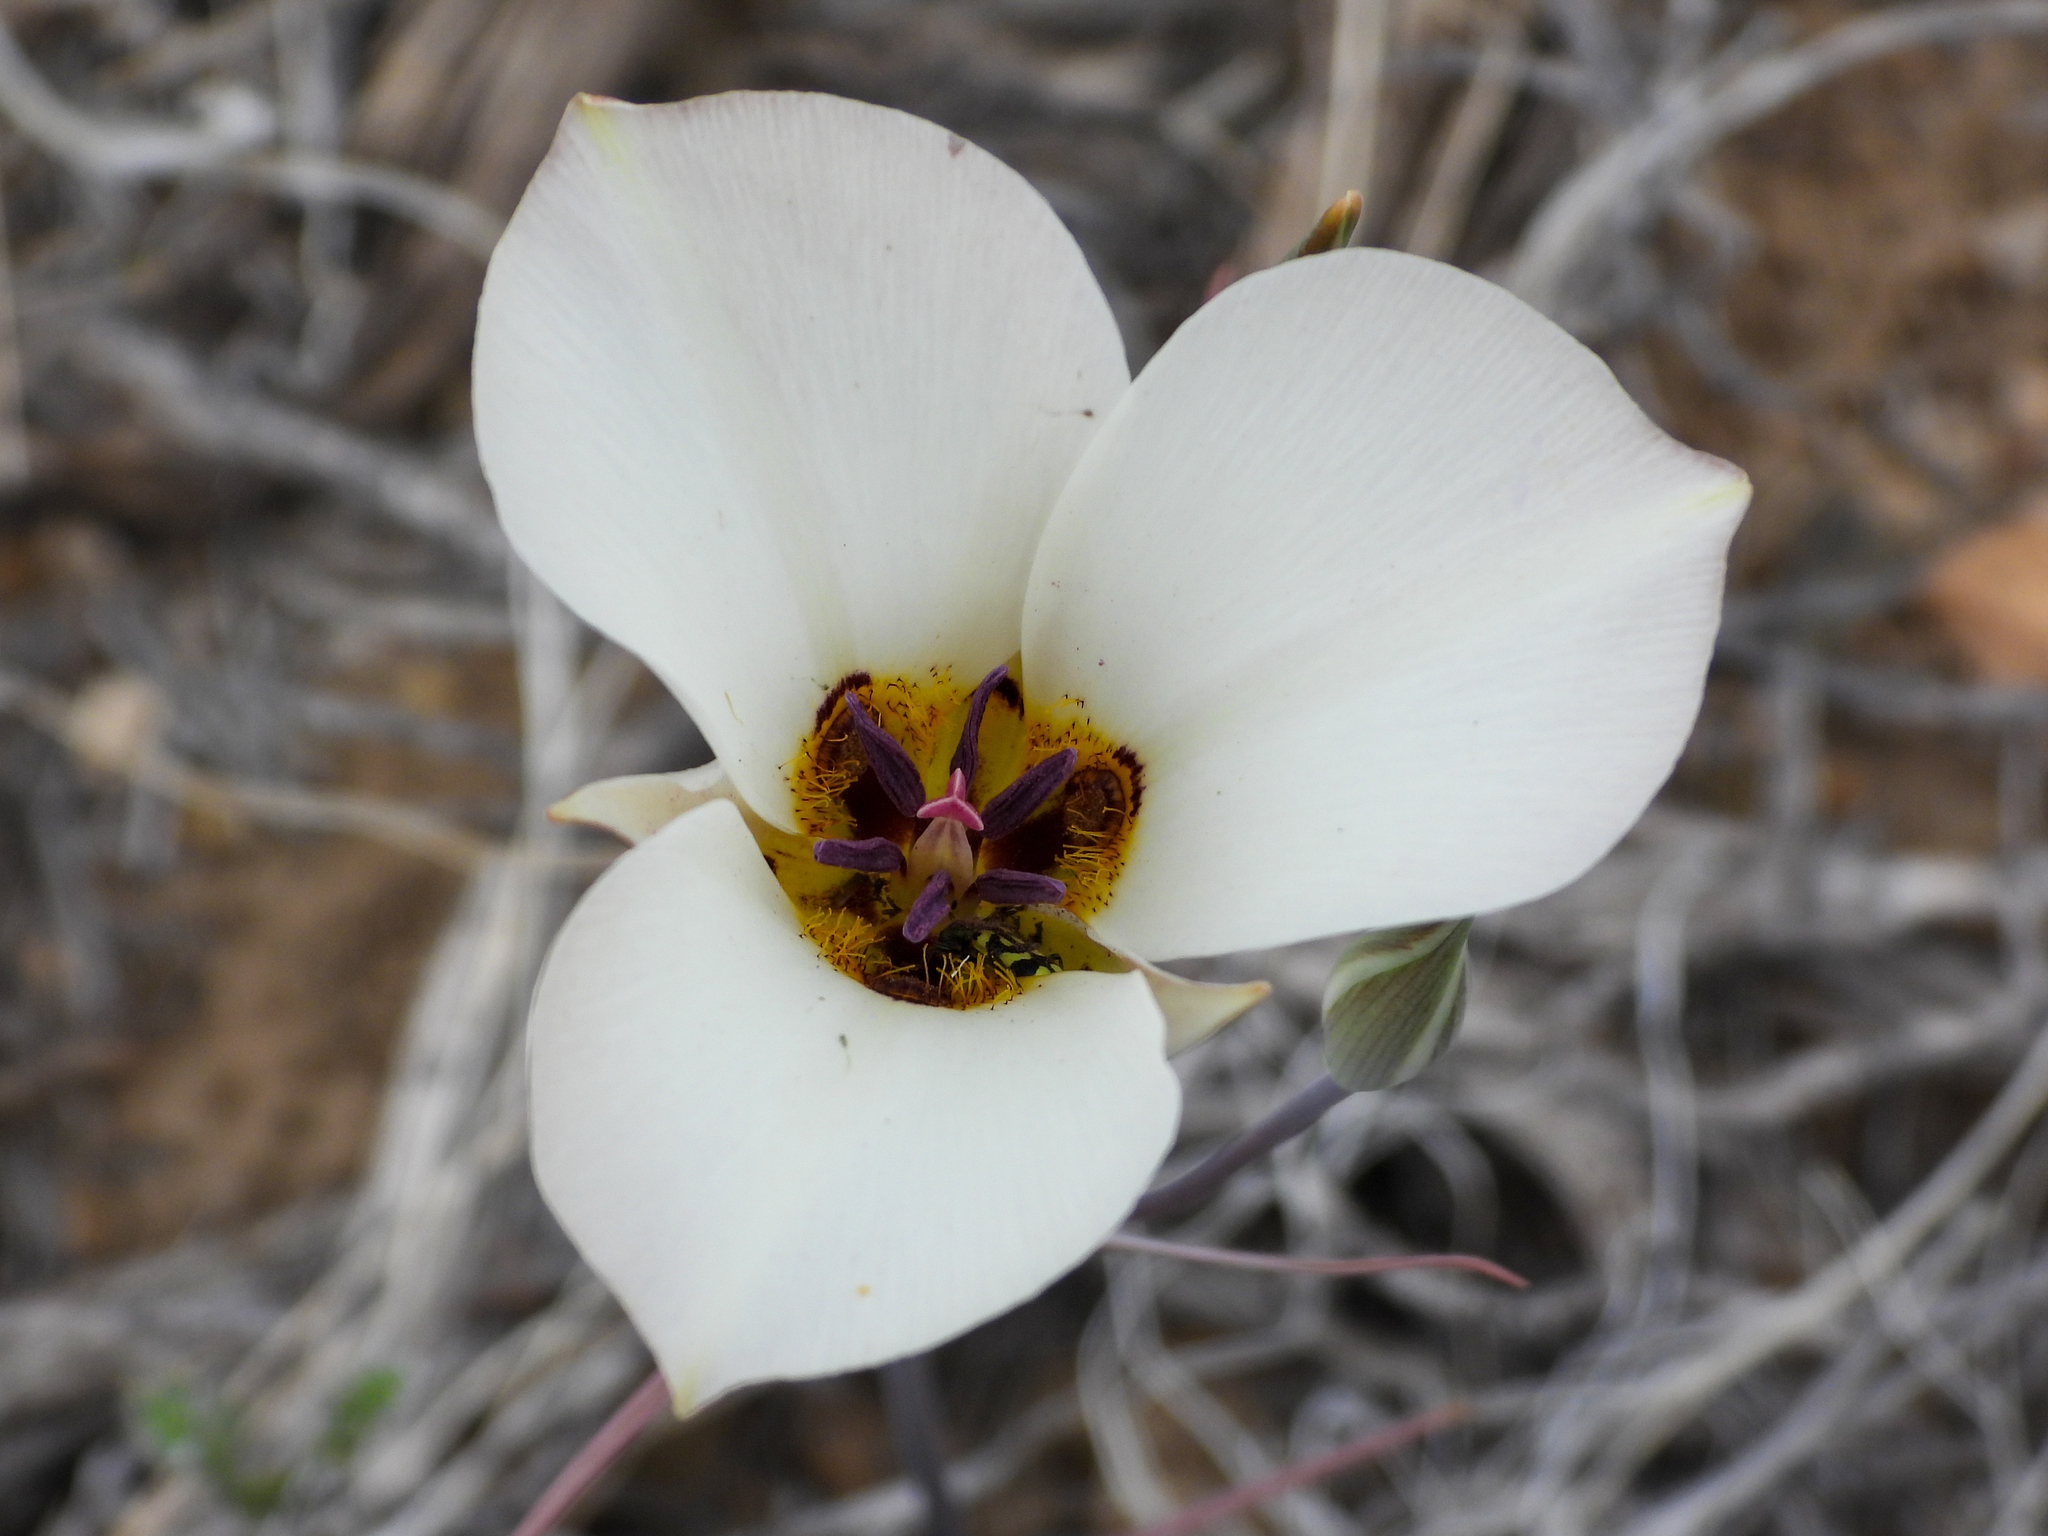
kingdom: Plantae
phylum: Tracheophyta
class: Liliopsida
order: Liliales
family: Liliaceae
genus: Calochortus
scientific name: Calochortus bruneaunis
